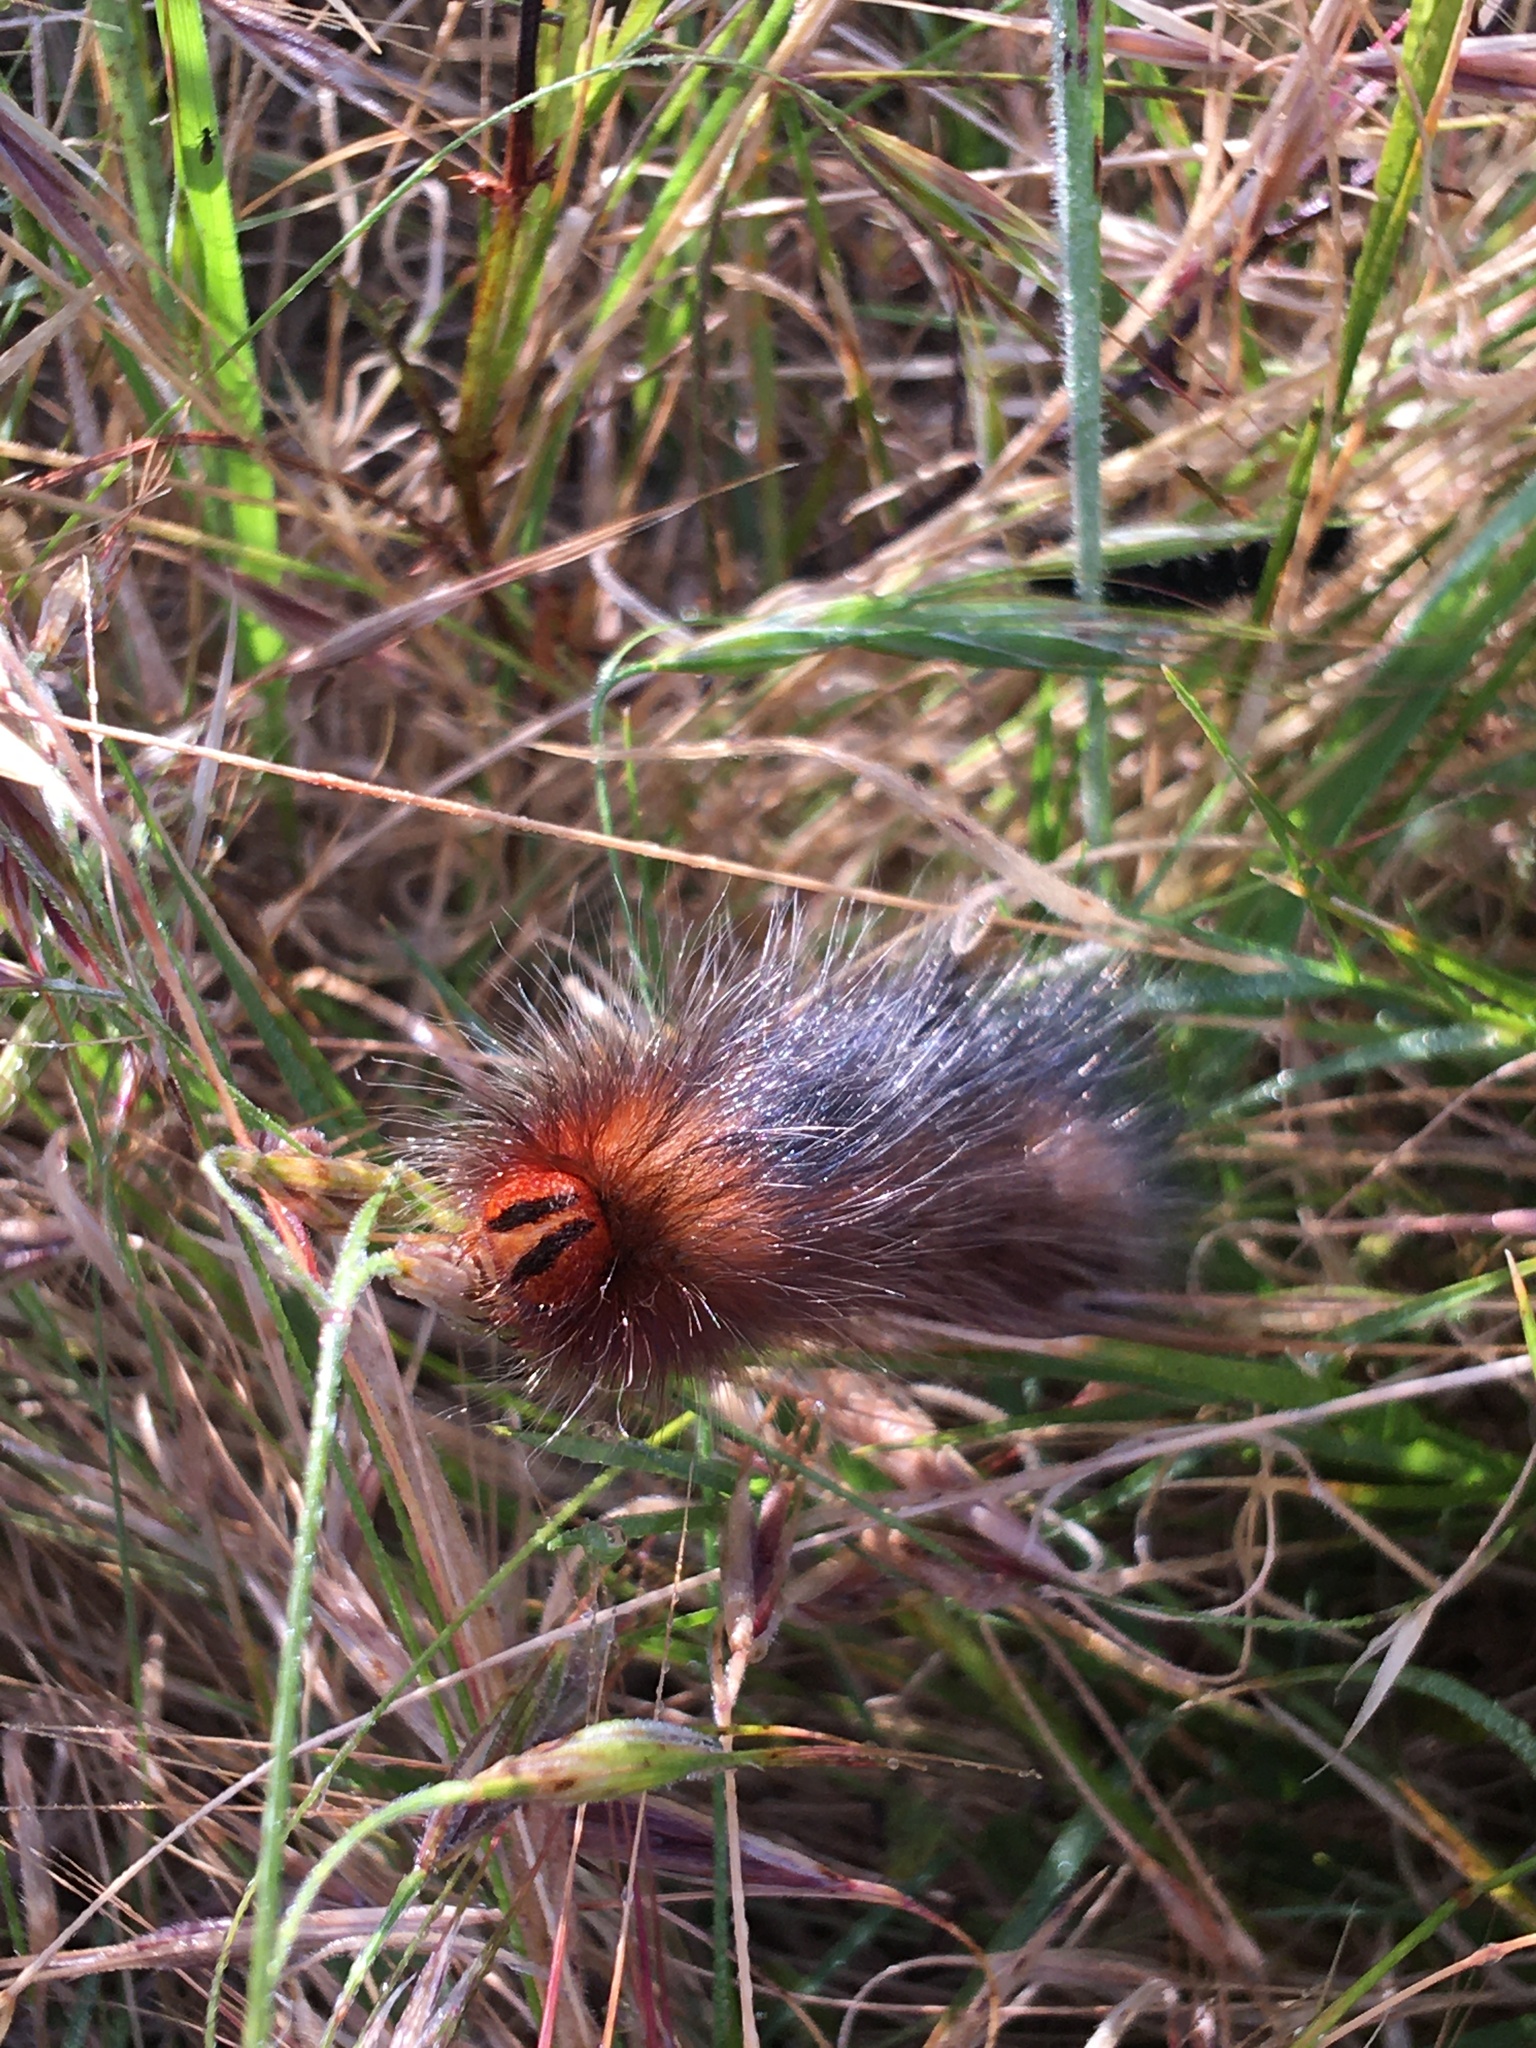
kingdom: Animalia
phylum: Arthropoda
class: Insecta
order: Lepidoptera
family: Lasiocampidae
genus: Mesocelis
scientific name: Mesocelis monticola
